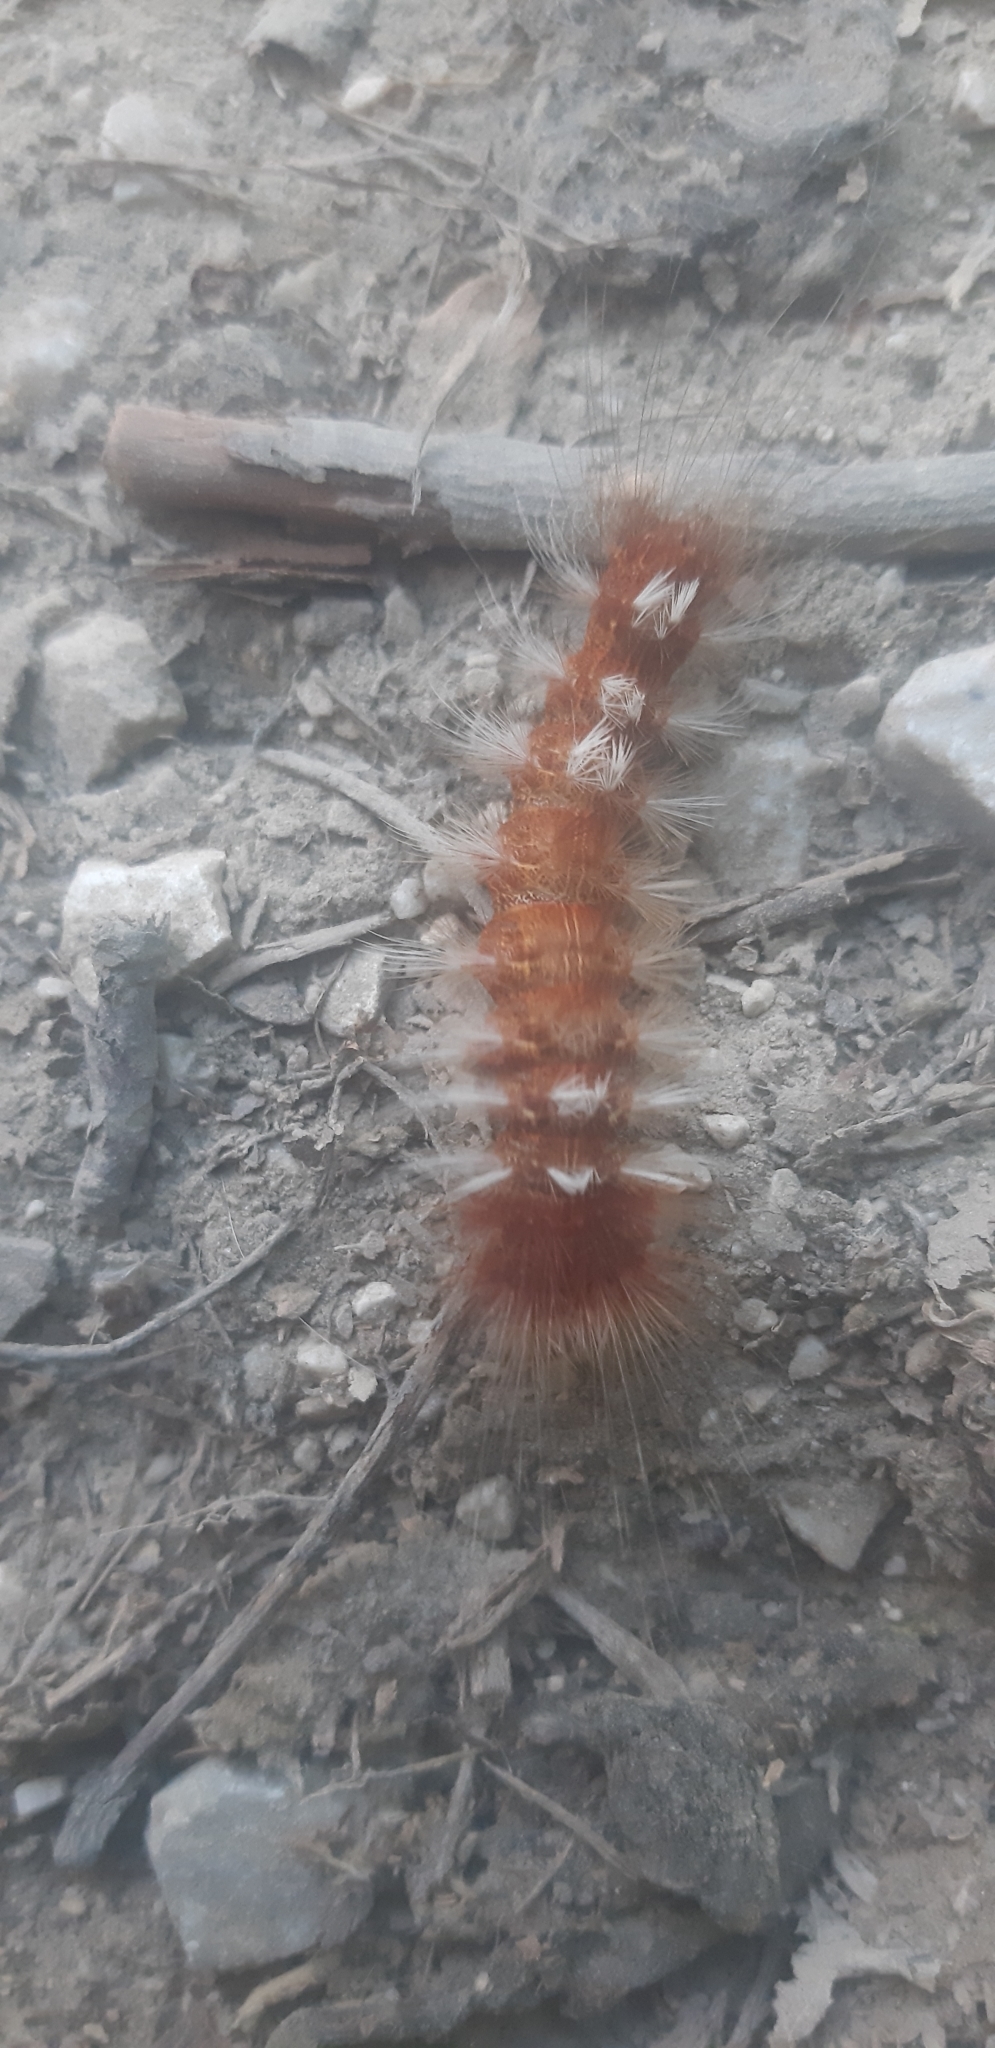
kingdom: Animalia
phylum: Arthropoda
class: Insecta
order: Lepidoptera
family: Erebidae
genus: Arctornis
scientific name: Arctornis l-nigrum
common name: Black v moth
